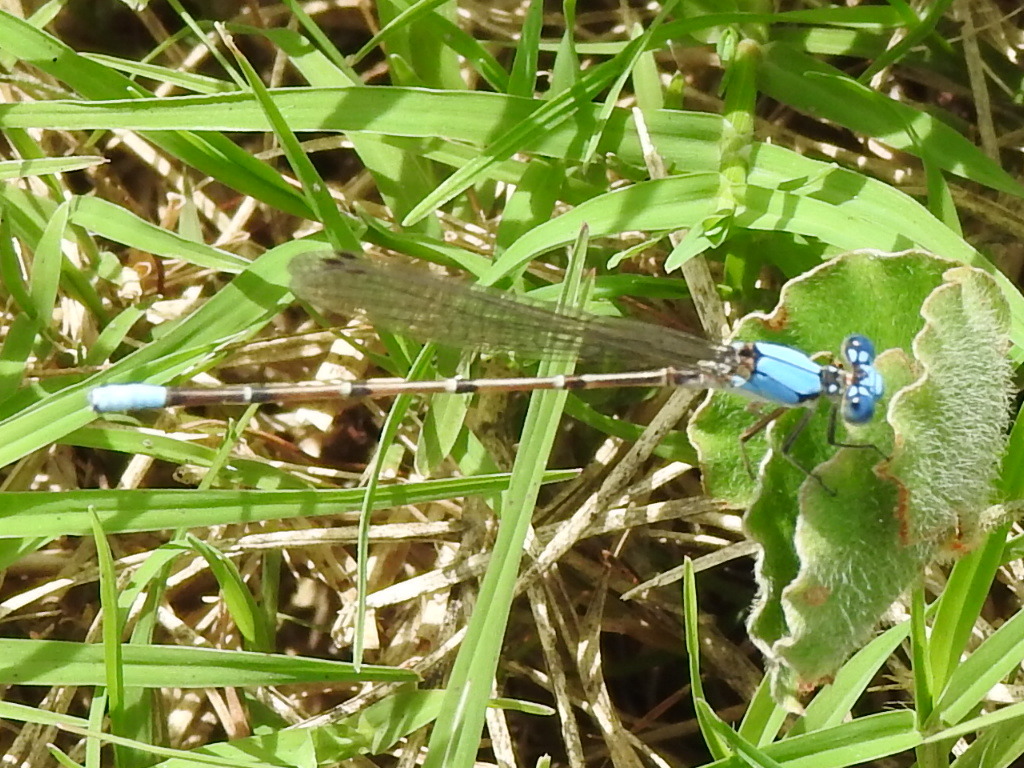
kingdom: Animalia
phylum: Arthropoda
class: Insecta
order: Odonata
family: Coenagrionidae
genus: Argia
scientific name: Argia apicalis
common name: Blue-fronted dancer
